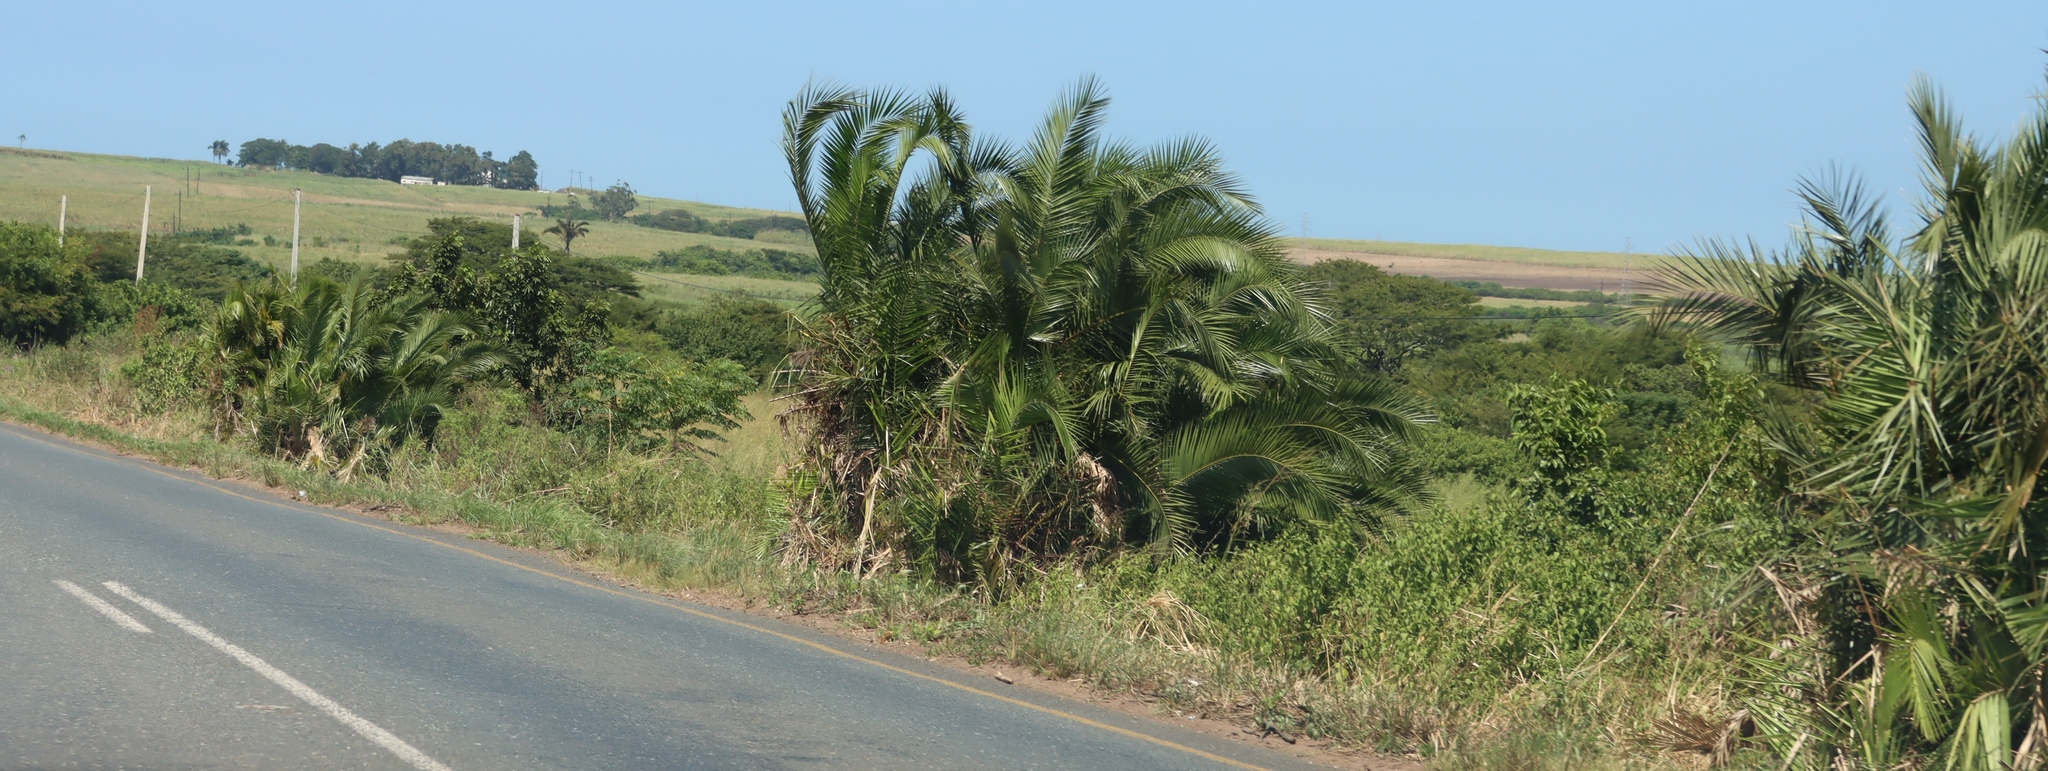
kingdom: Plantae
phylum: Tracheophyta
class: Liliopsida
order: Arecales
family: Arecaceae
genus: Phoenix
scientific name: Phoenix reclinata
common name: Senegal date palm
